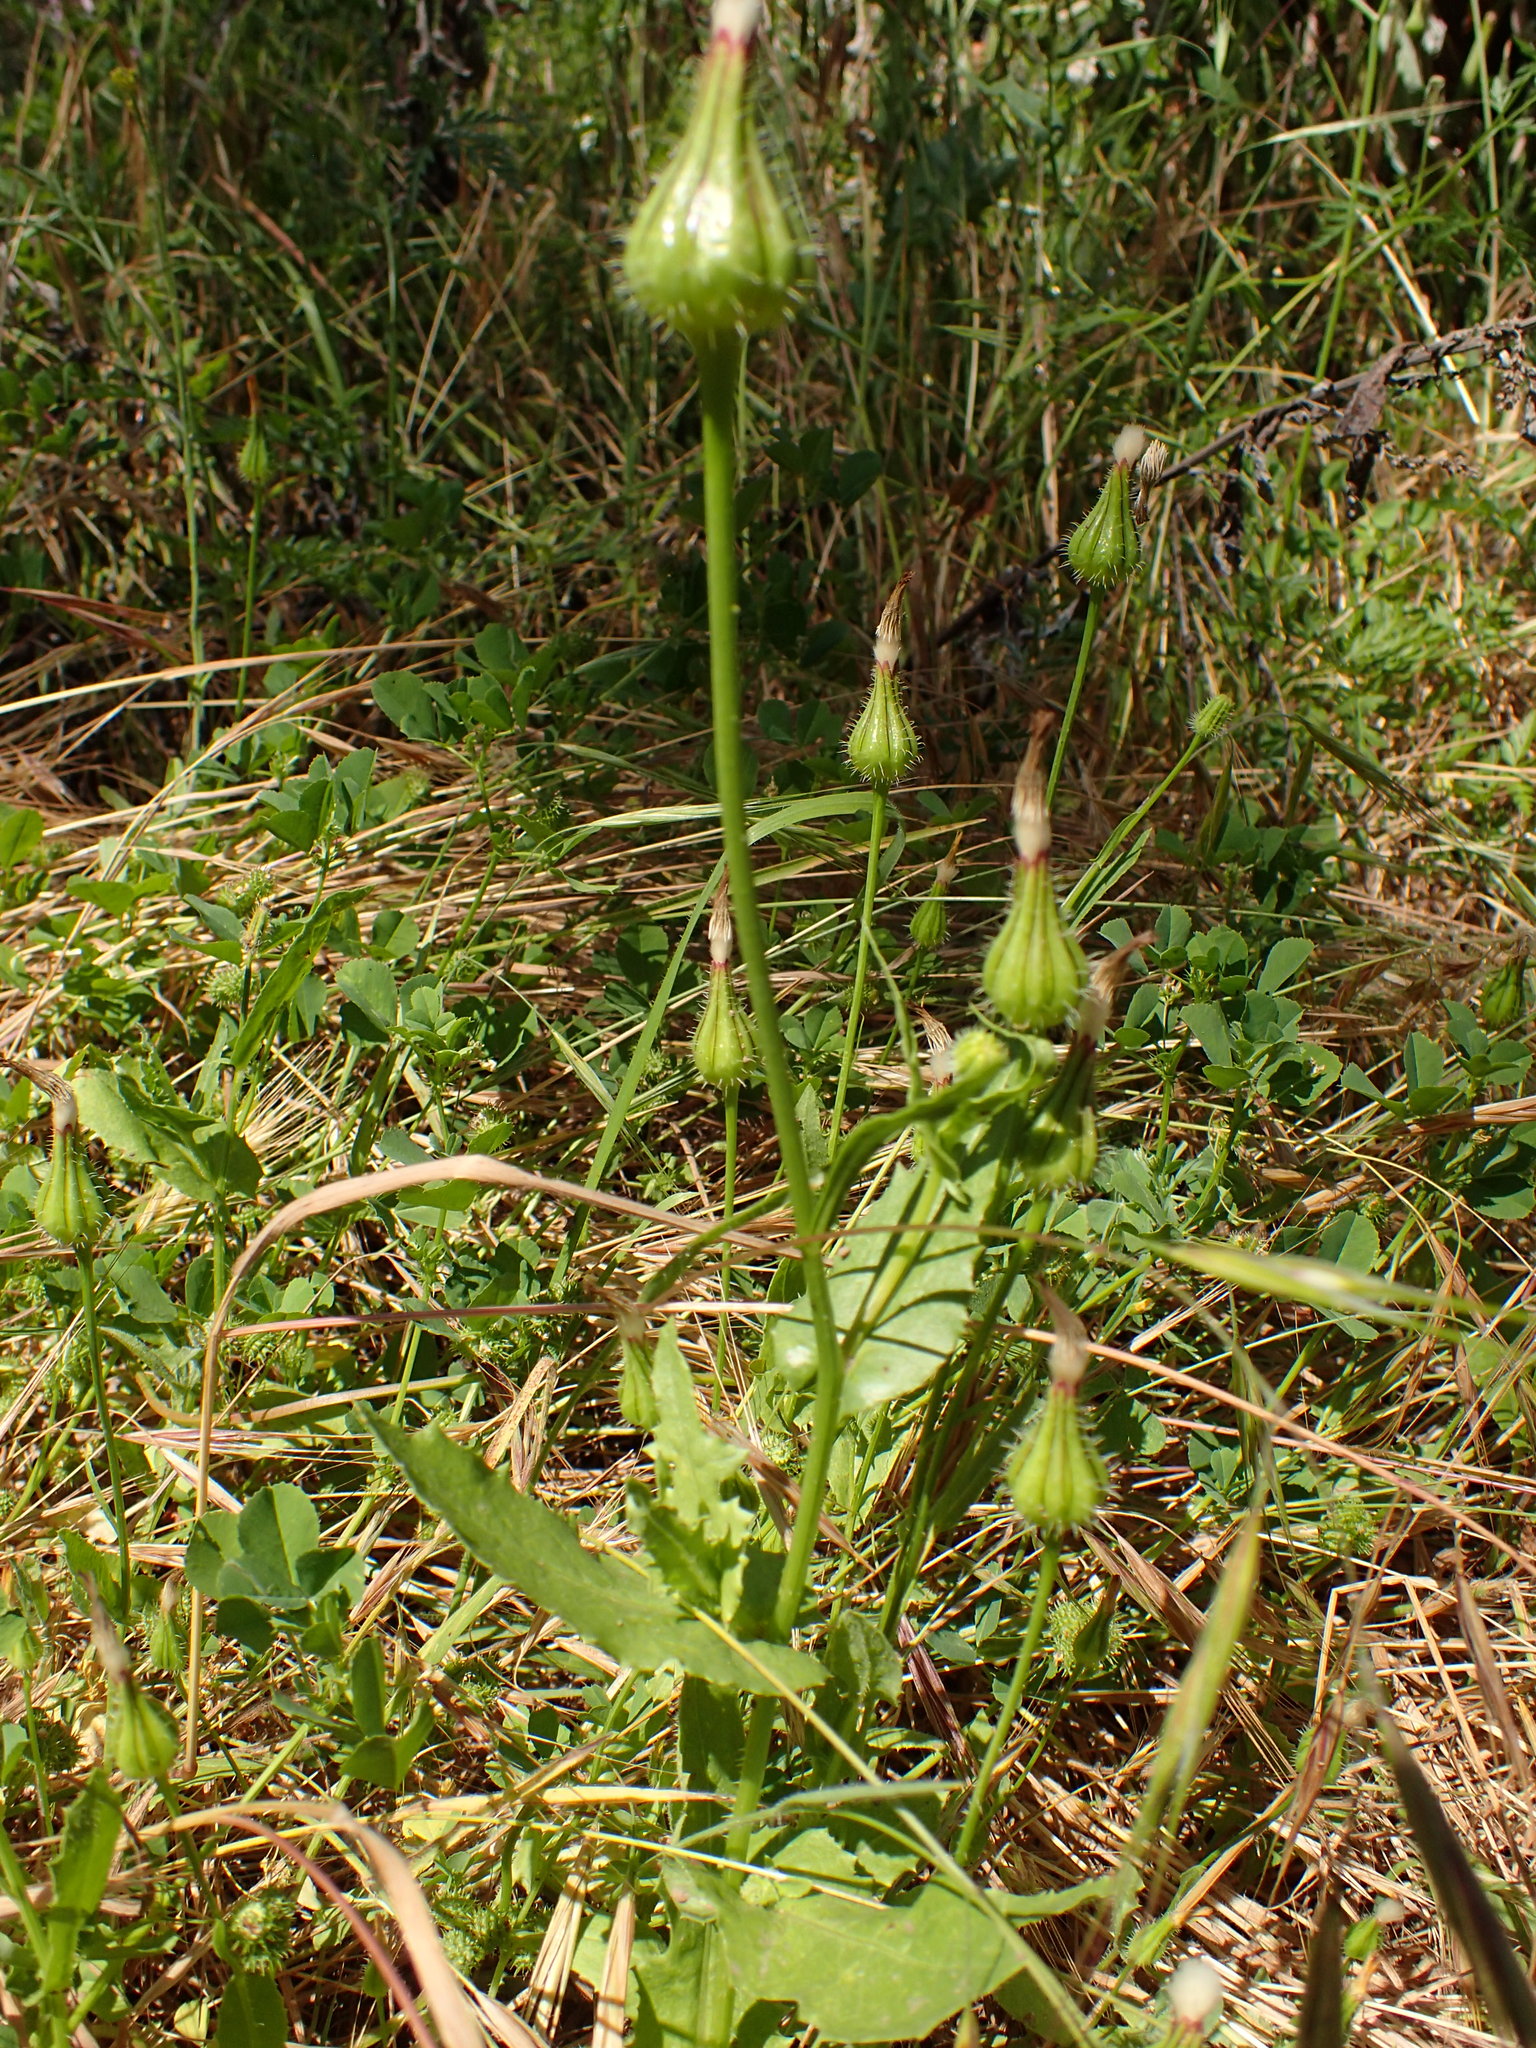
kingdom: Plantae
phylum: Tracheophyta
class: Magnoliopsida
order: Asterales
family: Asteraceae
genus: Urospermum
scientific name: Urospermum picroides
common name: False hawkbit
